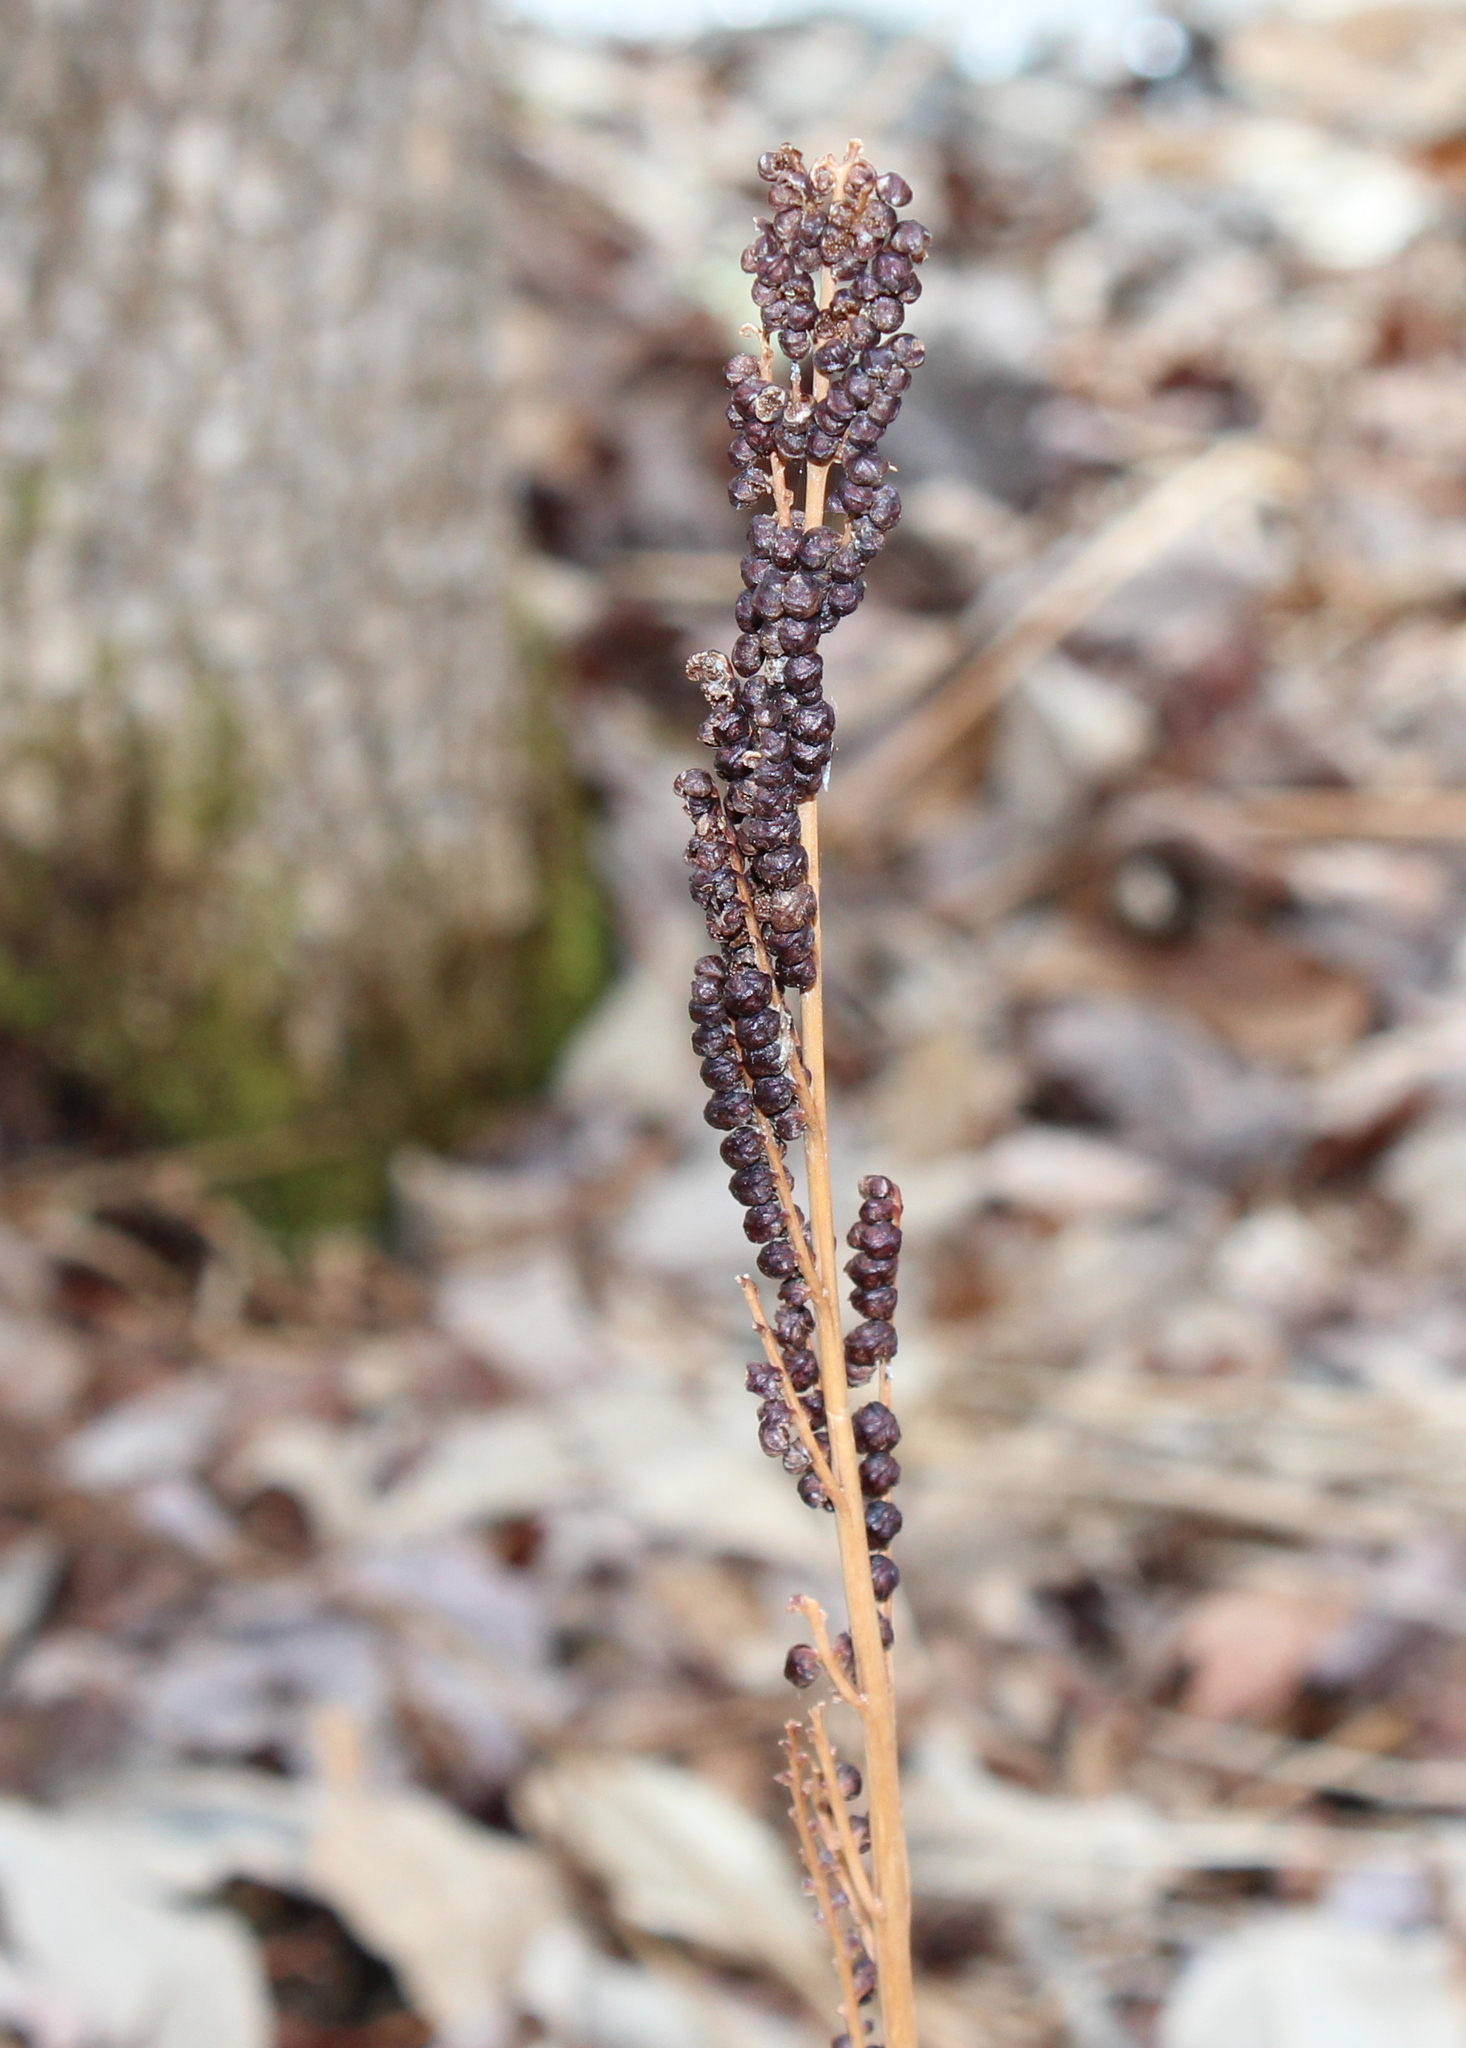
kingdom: Plantae
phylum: Tracheophyta
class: Polypodiopsida
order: Polypodiales
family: Onocleaceae
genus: Onoclea
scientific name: Onoclea sensibilis
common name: Sensitive fern
